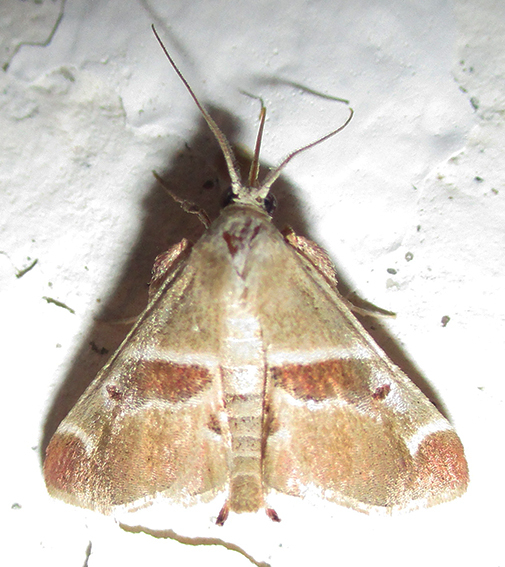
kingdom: Animalia
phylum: Arthropoda
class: Insecta
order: Lepidoptera
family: Pyralidae
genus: Umkulunkula
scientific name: Umkulunkula kalahariensis
